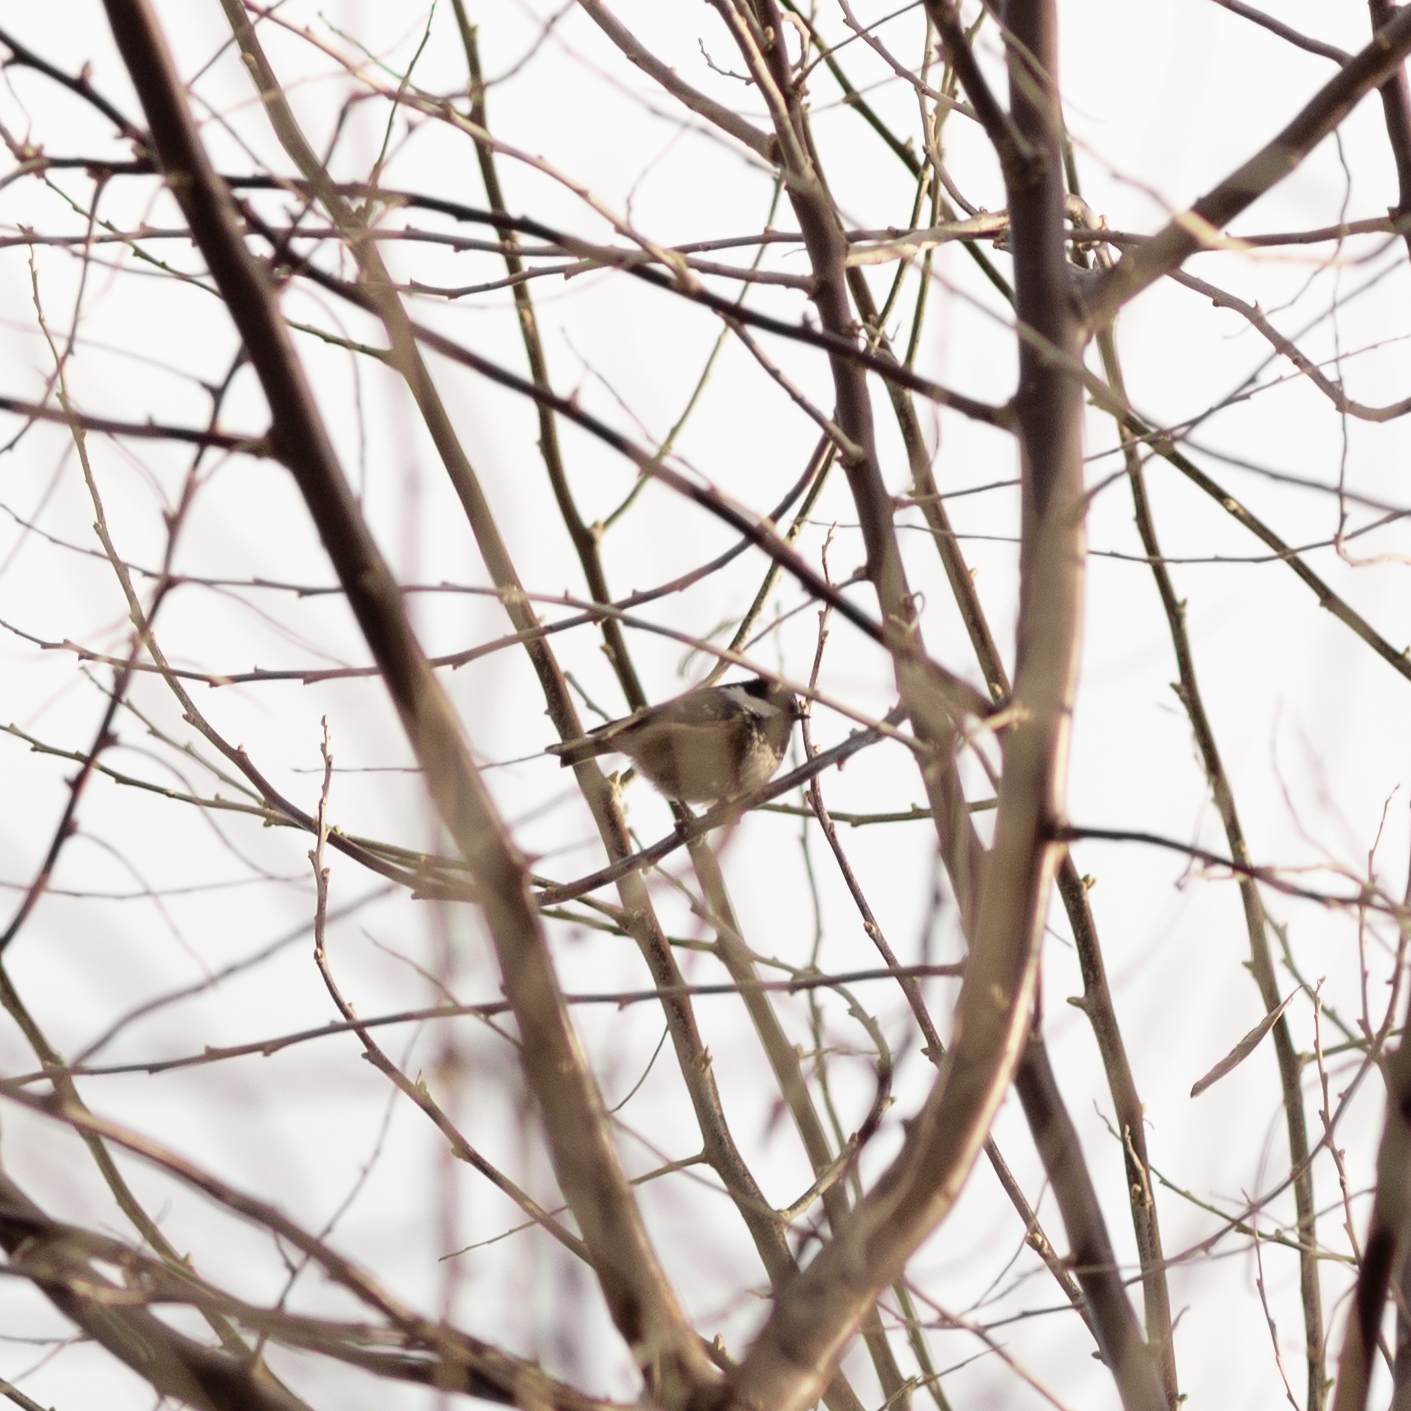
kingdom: Animalia
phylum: Chordata
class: Aves
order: Passeriformes
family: Paridae
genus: Periparus
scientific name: Periparus ater
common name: Coal tit
